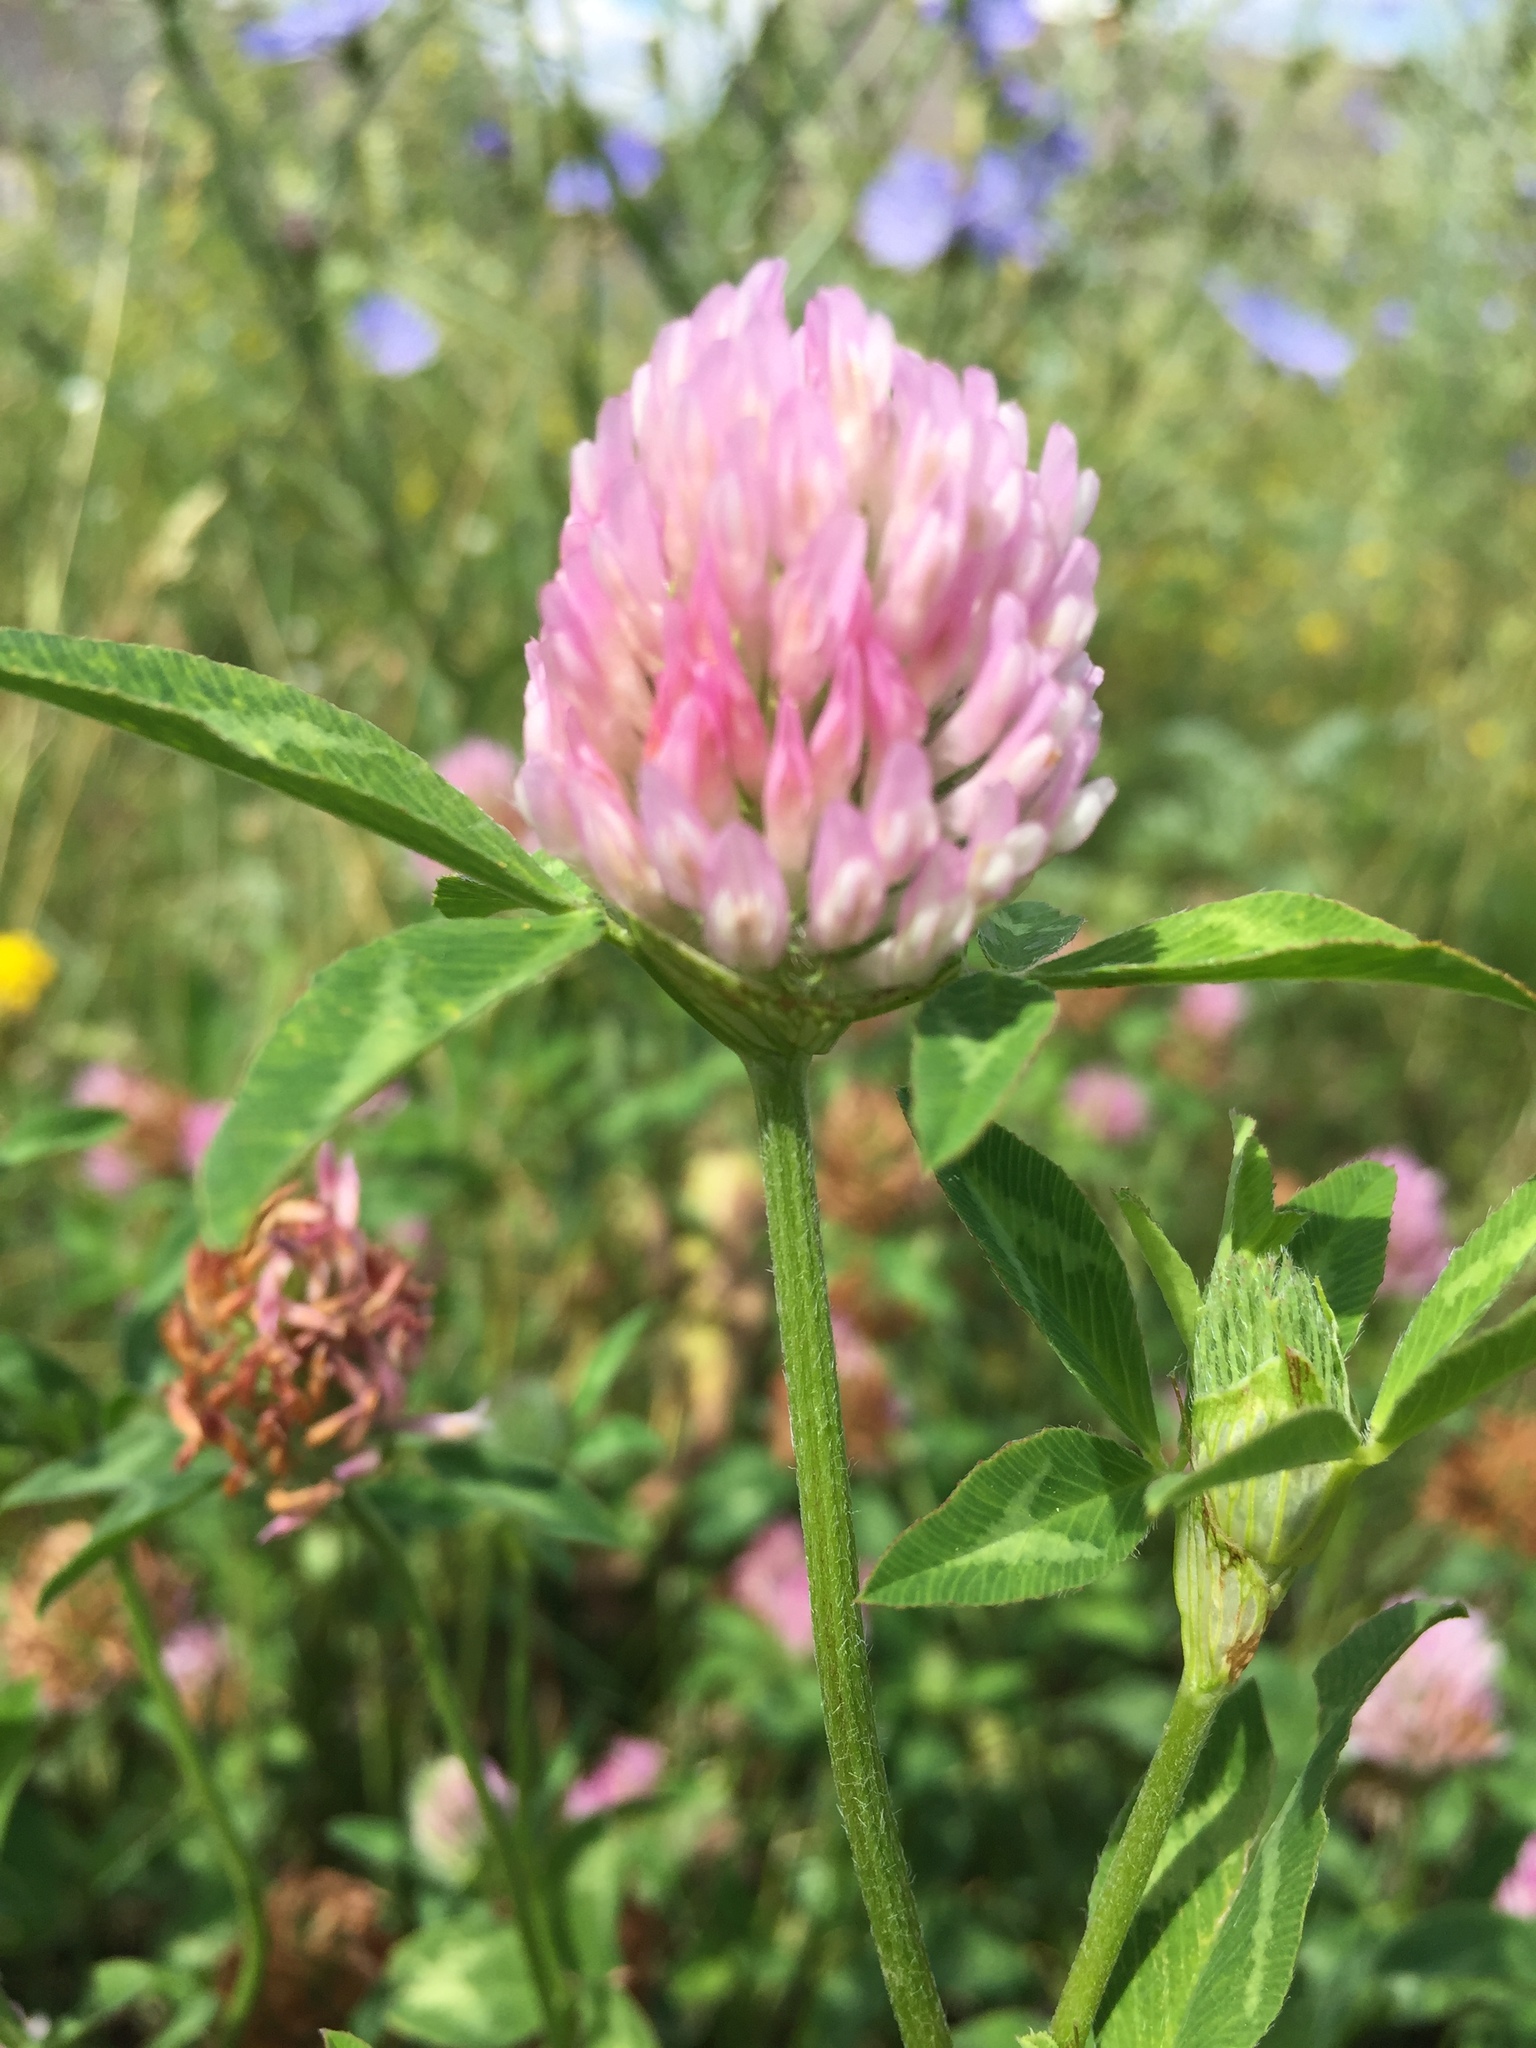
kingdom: Plantae
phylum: Tracheophyta
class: Magnoliopsida
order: Fabales
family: Fabaceae
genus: Trifolium
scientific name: Trifolium pratense
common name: Red clover
